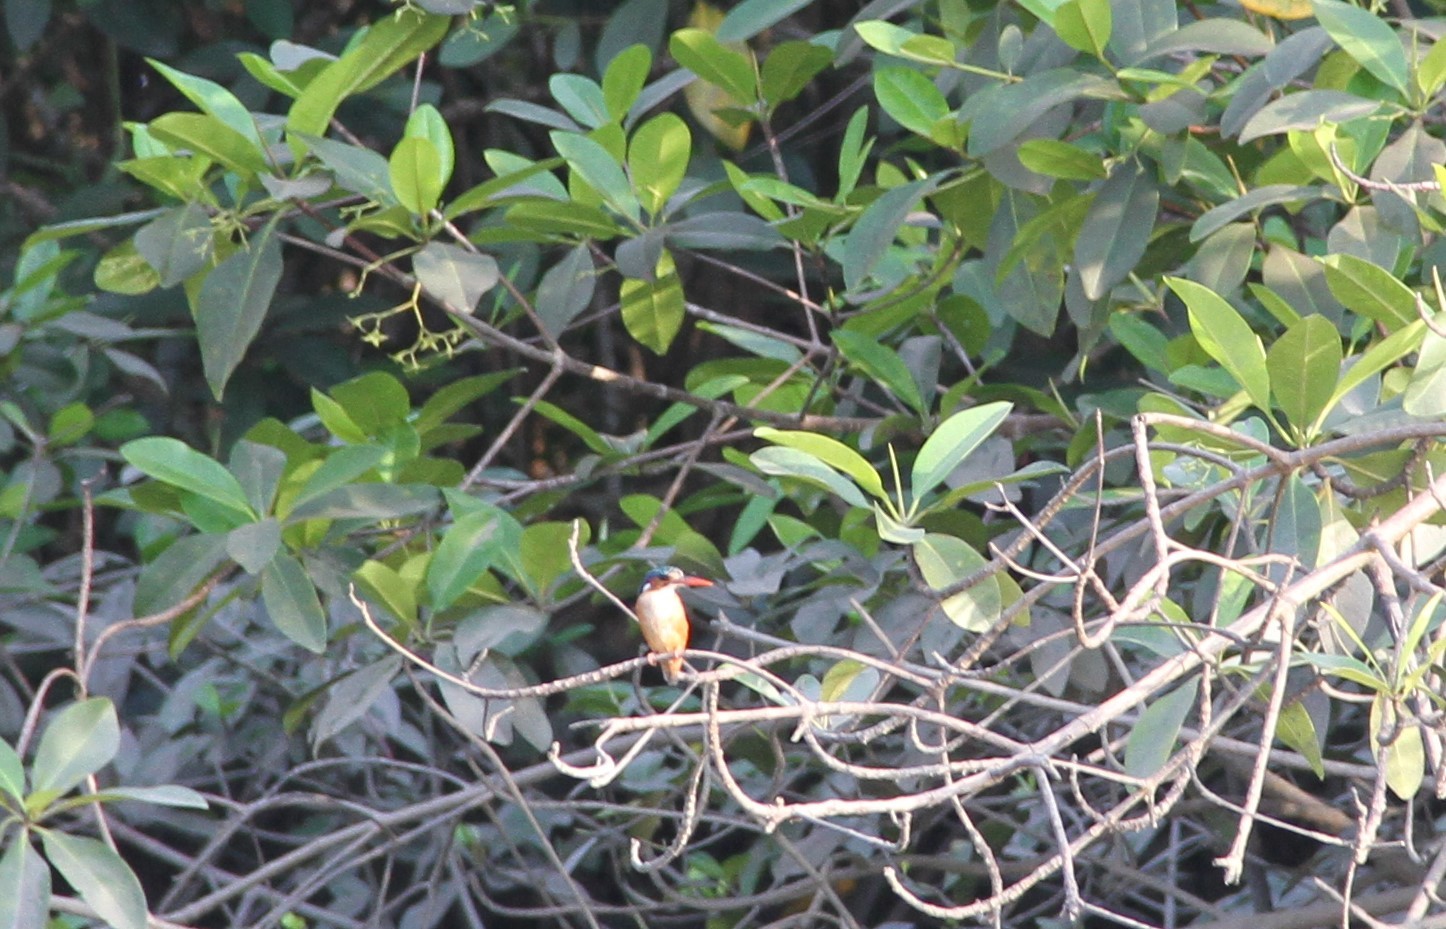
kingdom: Animalia
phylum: Chordata
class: Aves
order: Coraciiformes
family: Alcedinidae
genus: Corythornis
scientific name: Corythornis cristatus
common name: Malachite kingfisher
